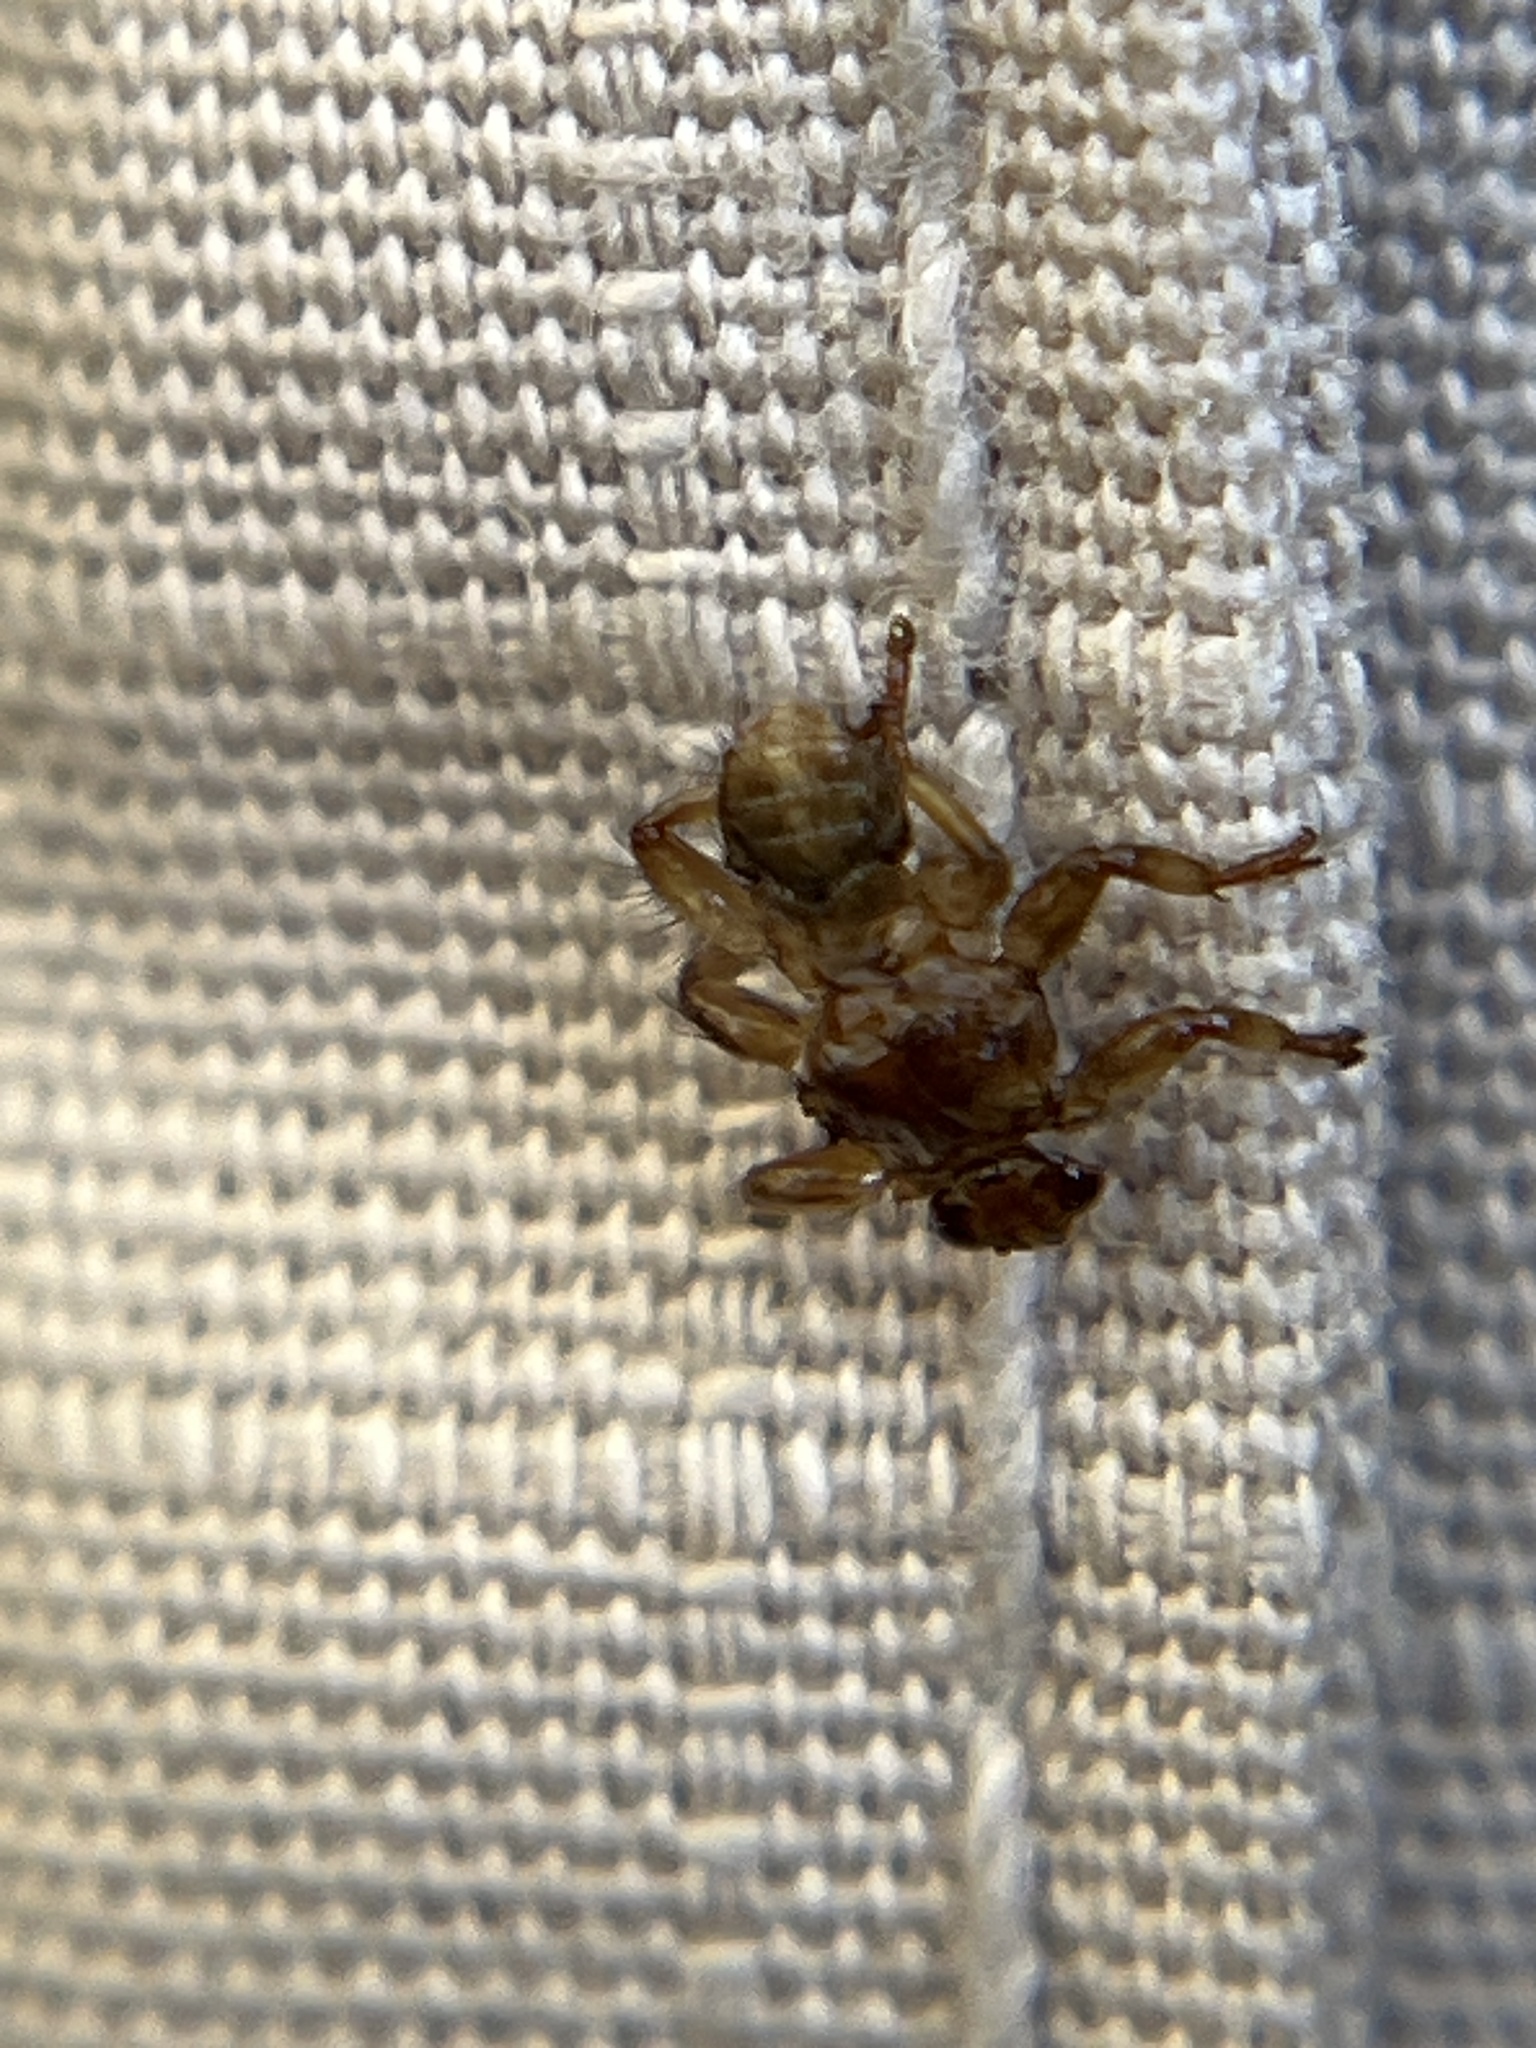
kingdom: Animalia
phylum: Arthropoda
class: Insecta
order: Diptera
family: Hippoboscidae
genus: Lipoptena
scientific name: Lipoptena cervi
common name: Deer ked
